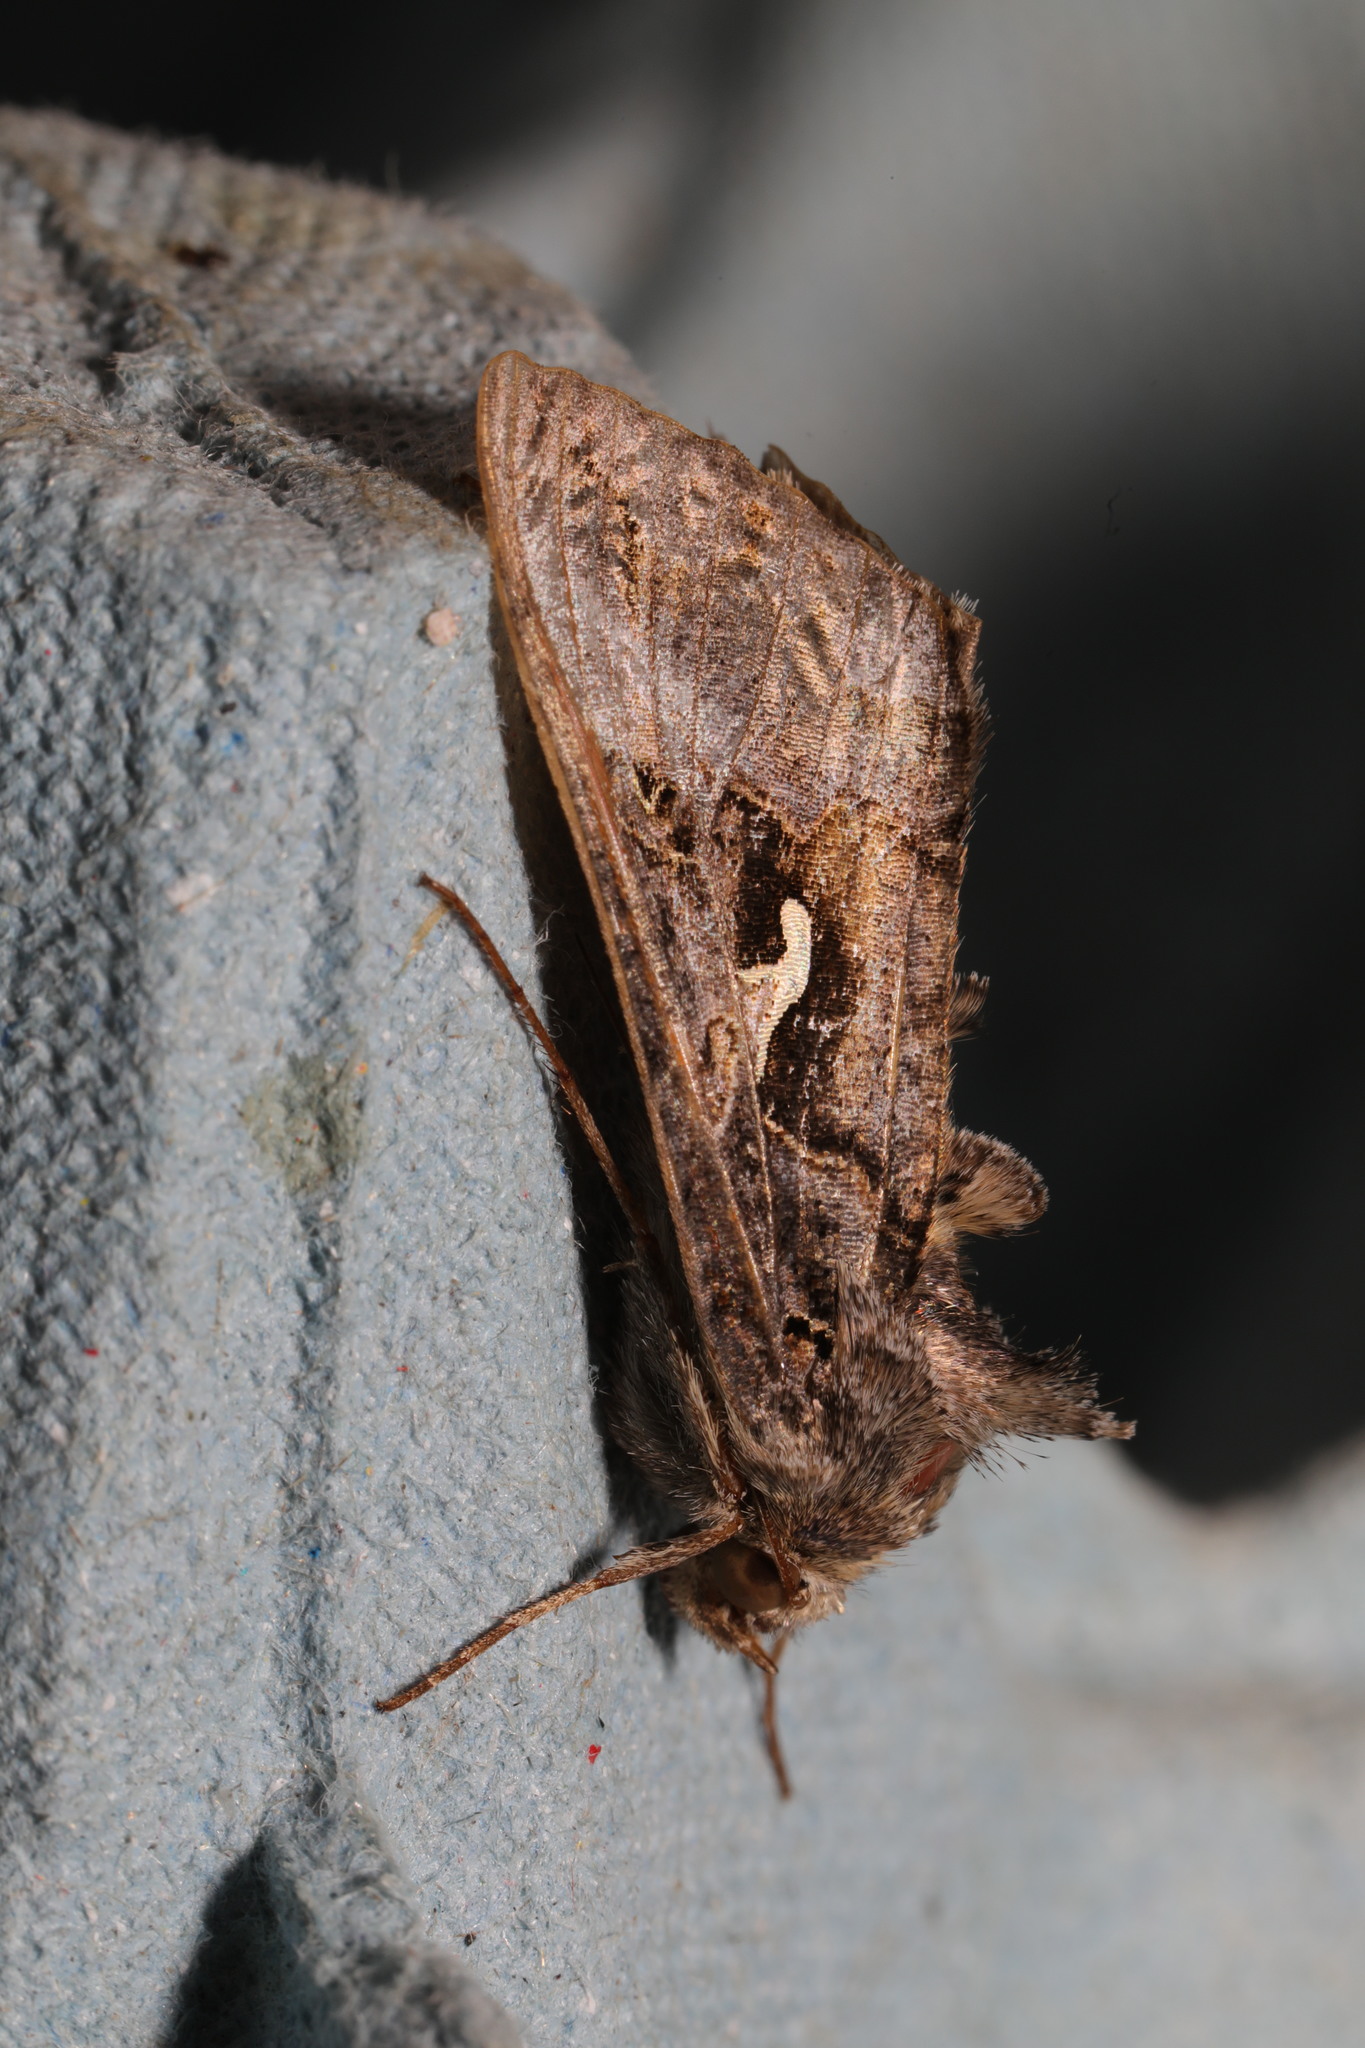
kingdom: Animalia
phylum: Arthropoda
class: Insecta
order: Lepidoptera
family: Noctuidae
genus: Autographa
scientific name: Autographa gamma
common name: Silver y
